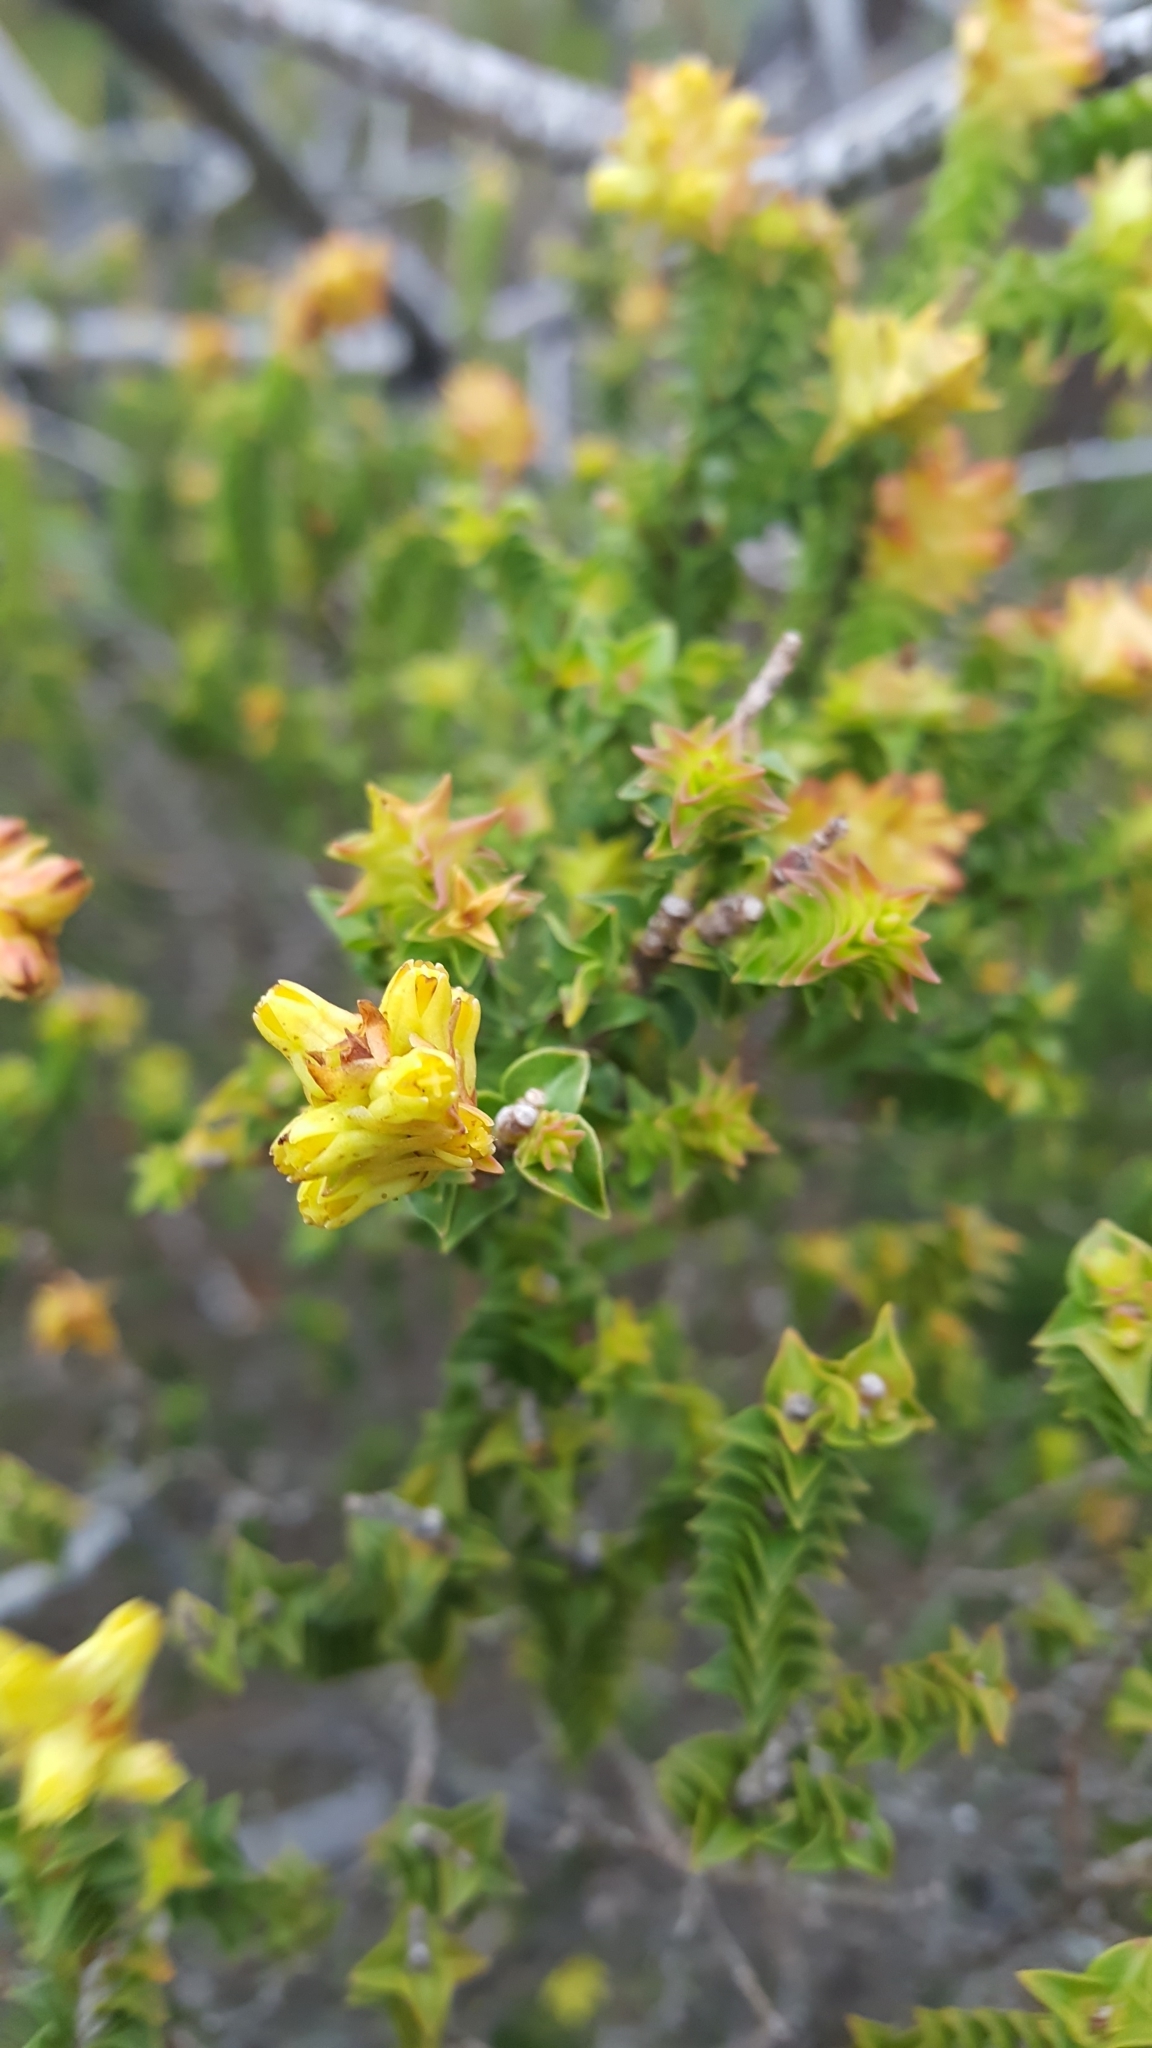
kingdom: Plantae
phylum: Tracheophyta
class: Magnoliopsida
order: Myrtales
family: Penaeaceae
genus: Penaea
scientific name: Penaea mucronata
